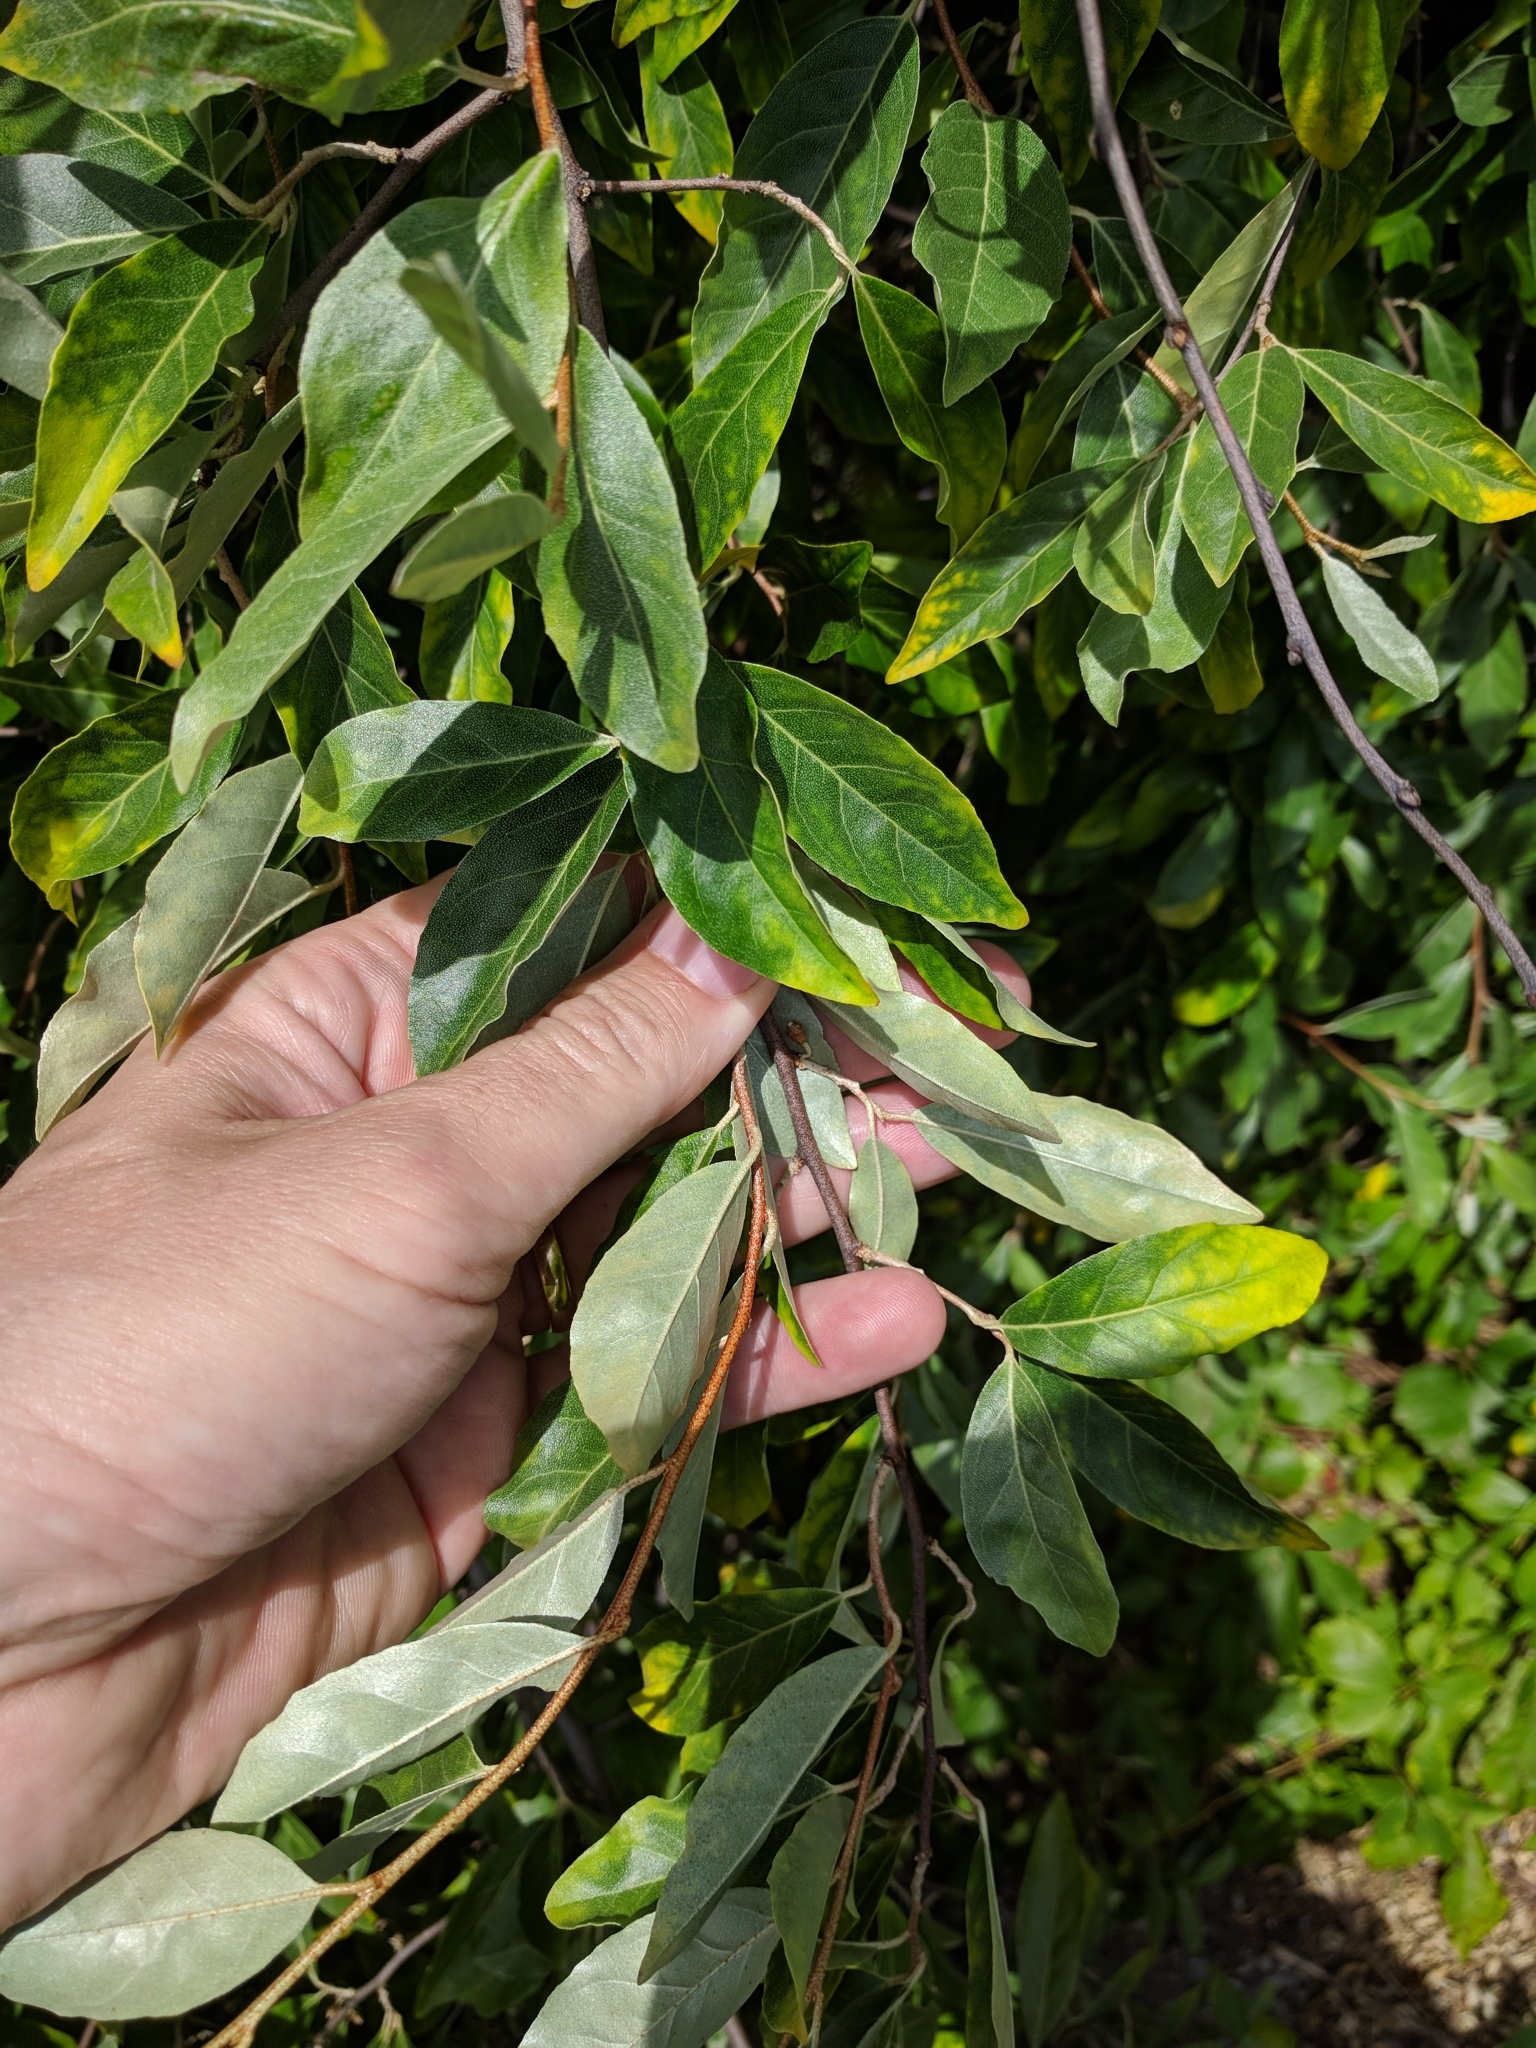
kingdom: Plantae
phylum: Tracheophyta
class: Magnoliopsida
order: Rosales
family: Elaeagnaceae
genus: Elaeagnus
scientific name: Elaeagnus umbellata
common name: Autumn olive
